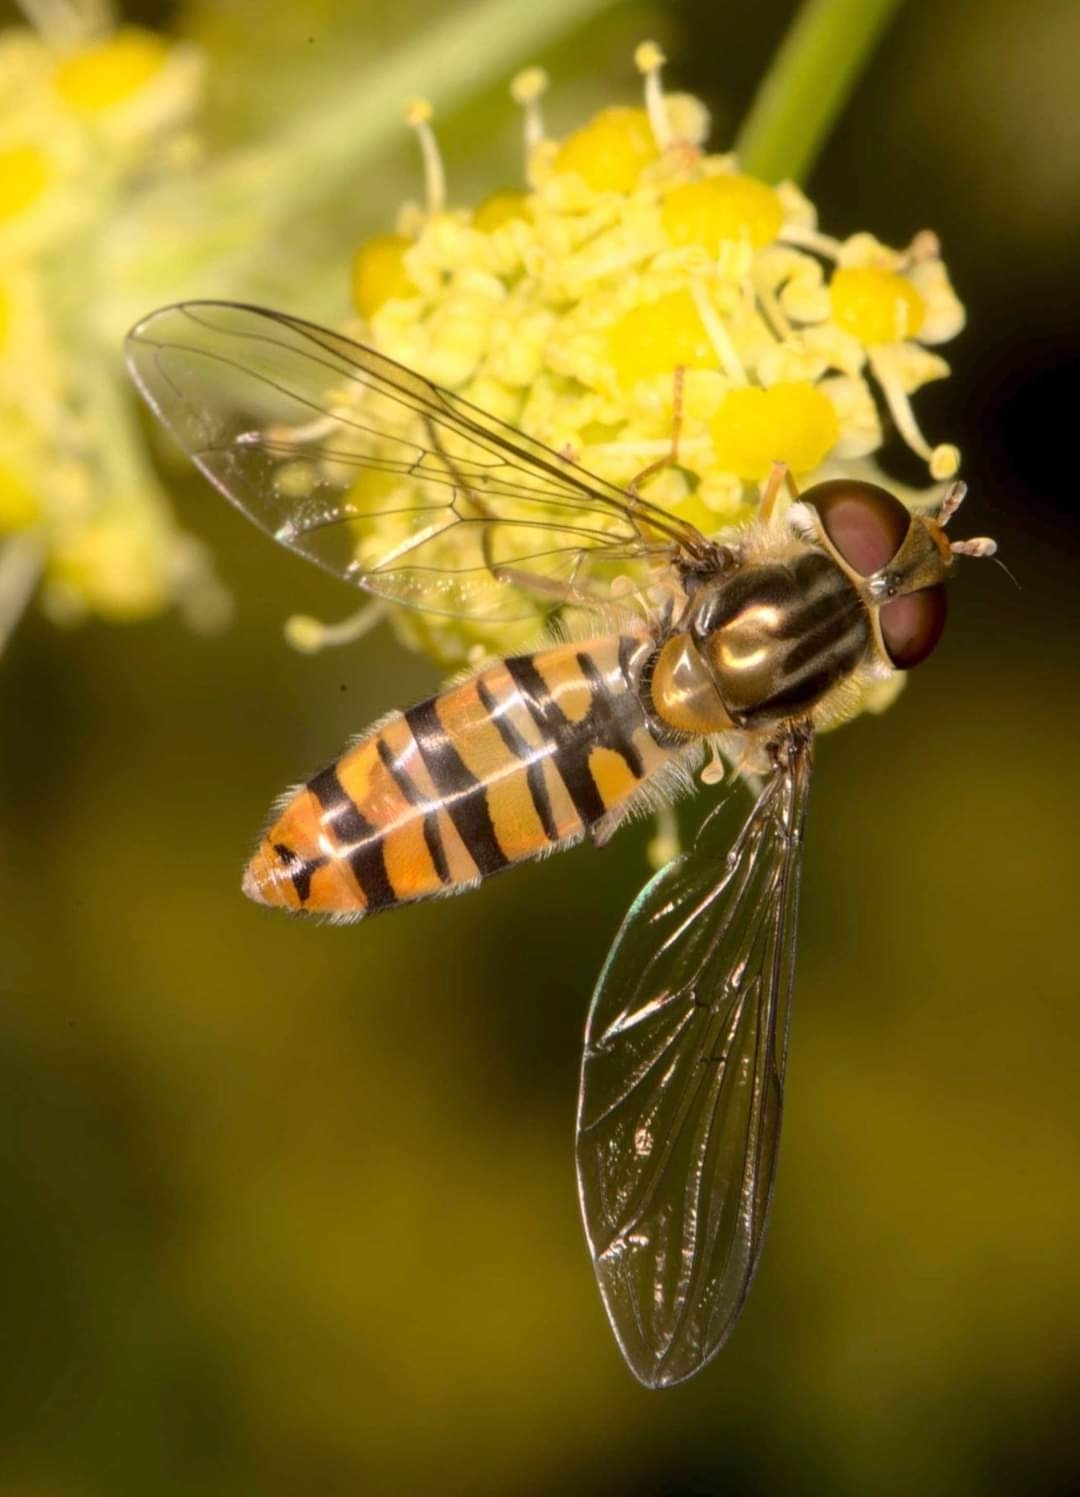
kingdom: Animalia
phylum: Arthropoda
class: Insecta
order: Diptera
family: Syrphidae
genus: Episyrphus
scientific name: Episyrphus balteatus
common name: Marmalade hoverfly
